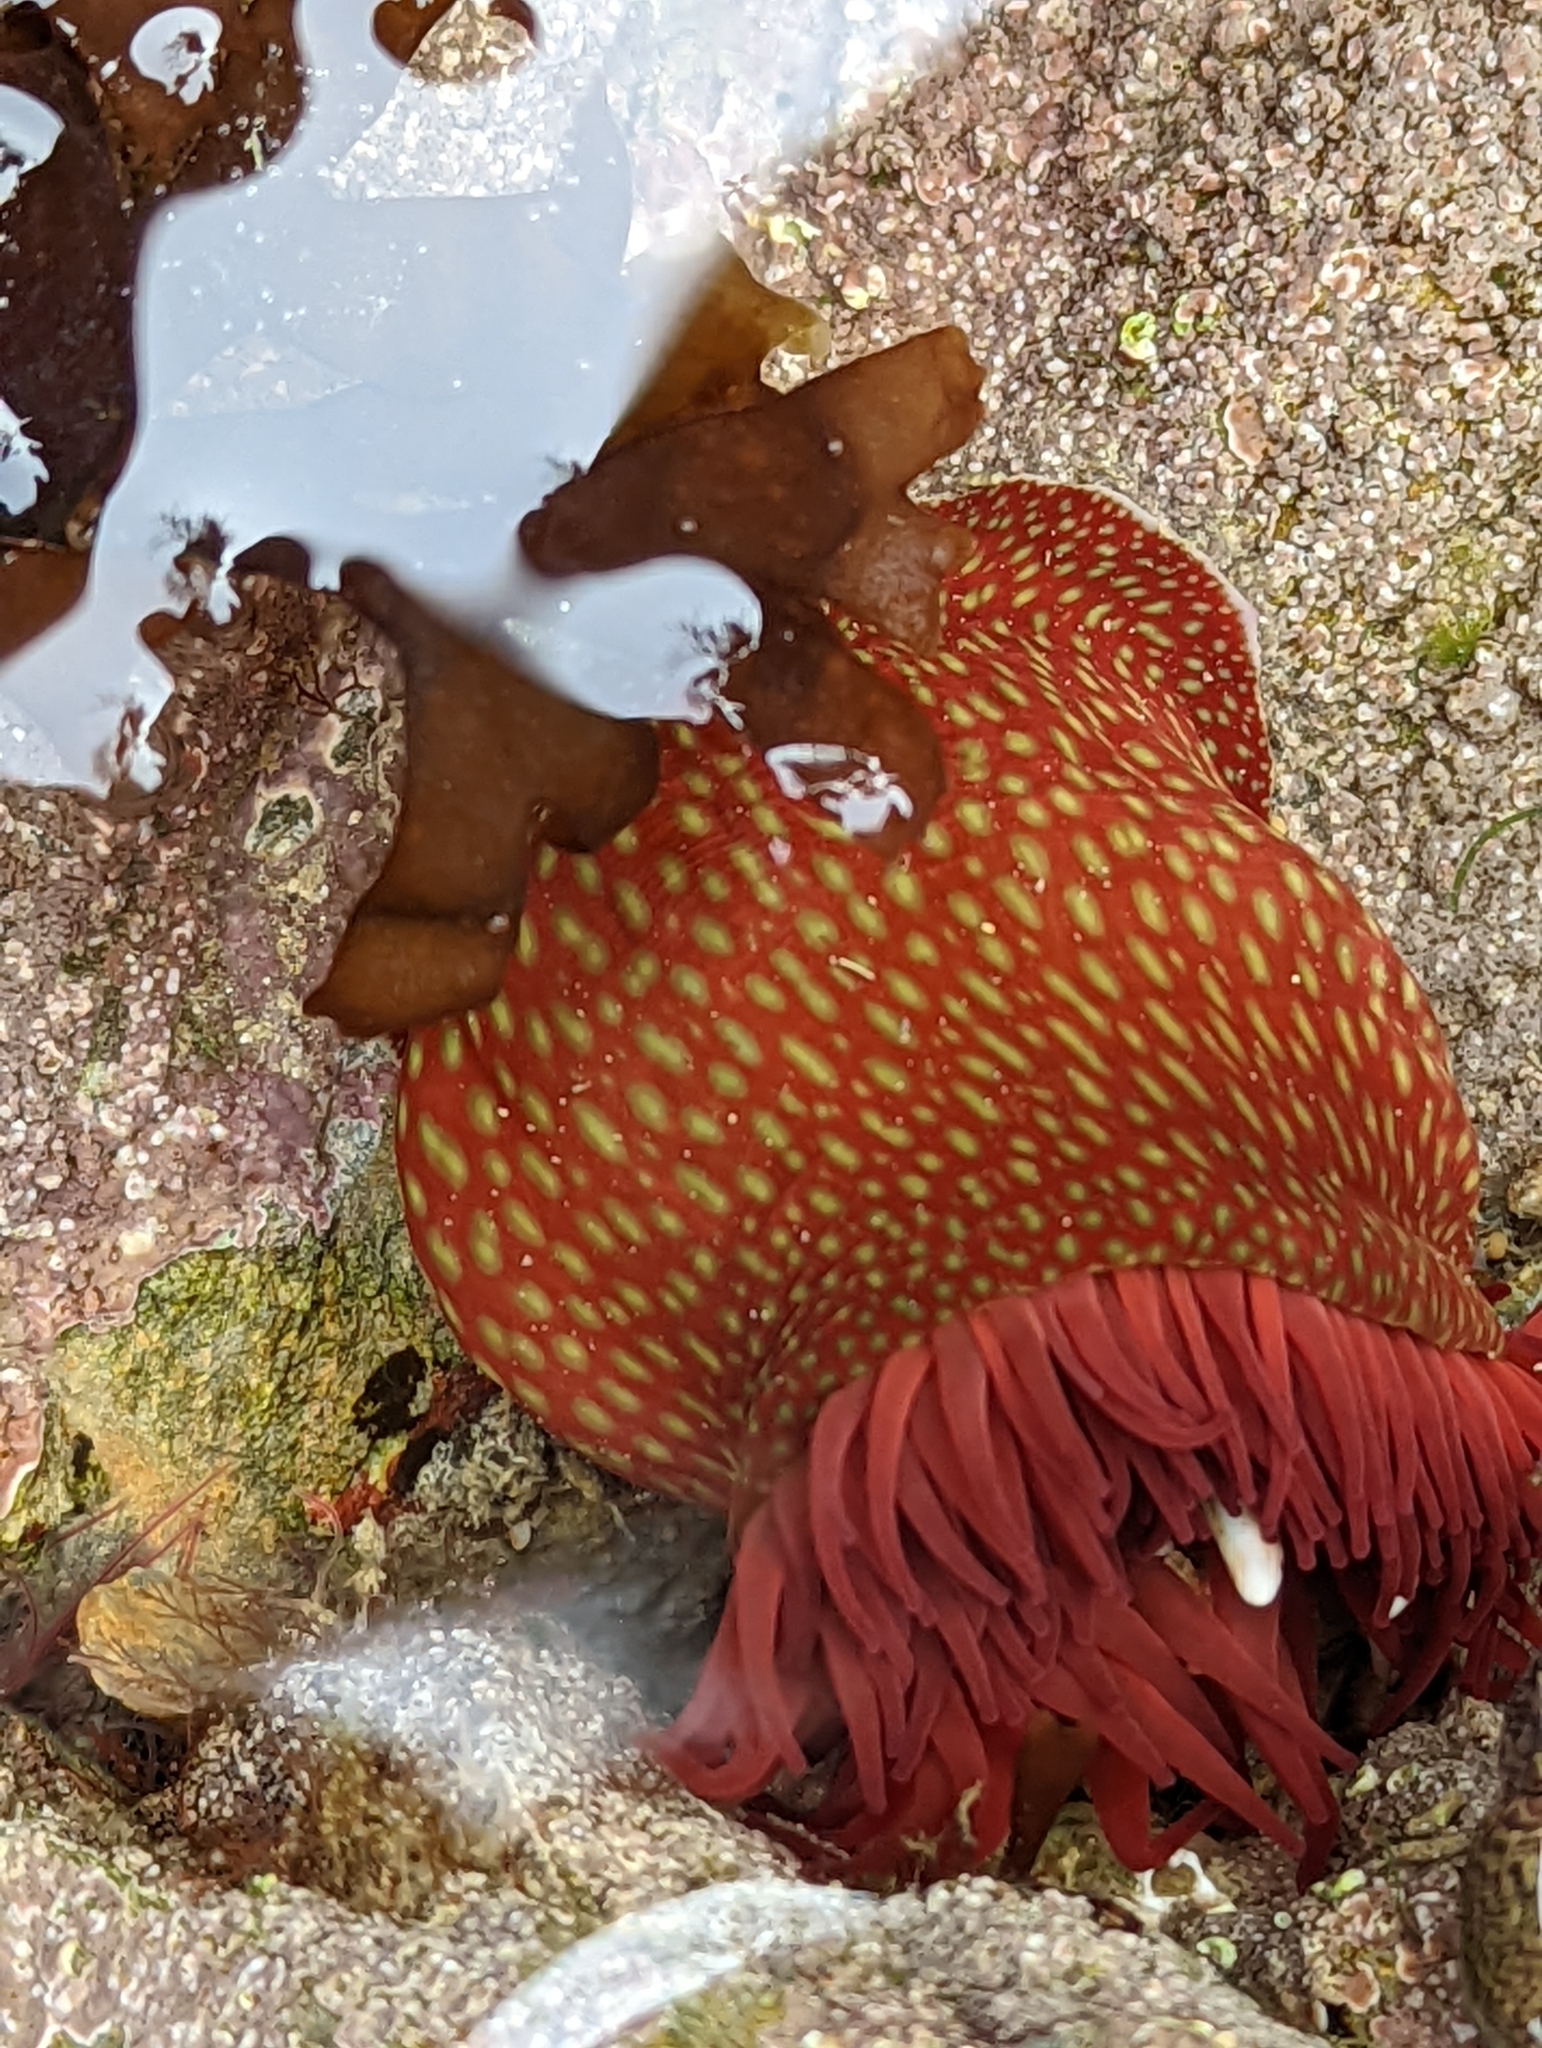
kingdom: Animalia
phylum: Cnidaria
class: Anthozoa
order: Actiniaria
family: Actiniidae
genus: Actinia
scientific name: Actinia fragacea
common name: Strawberry anemone
